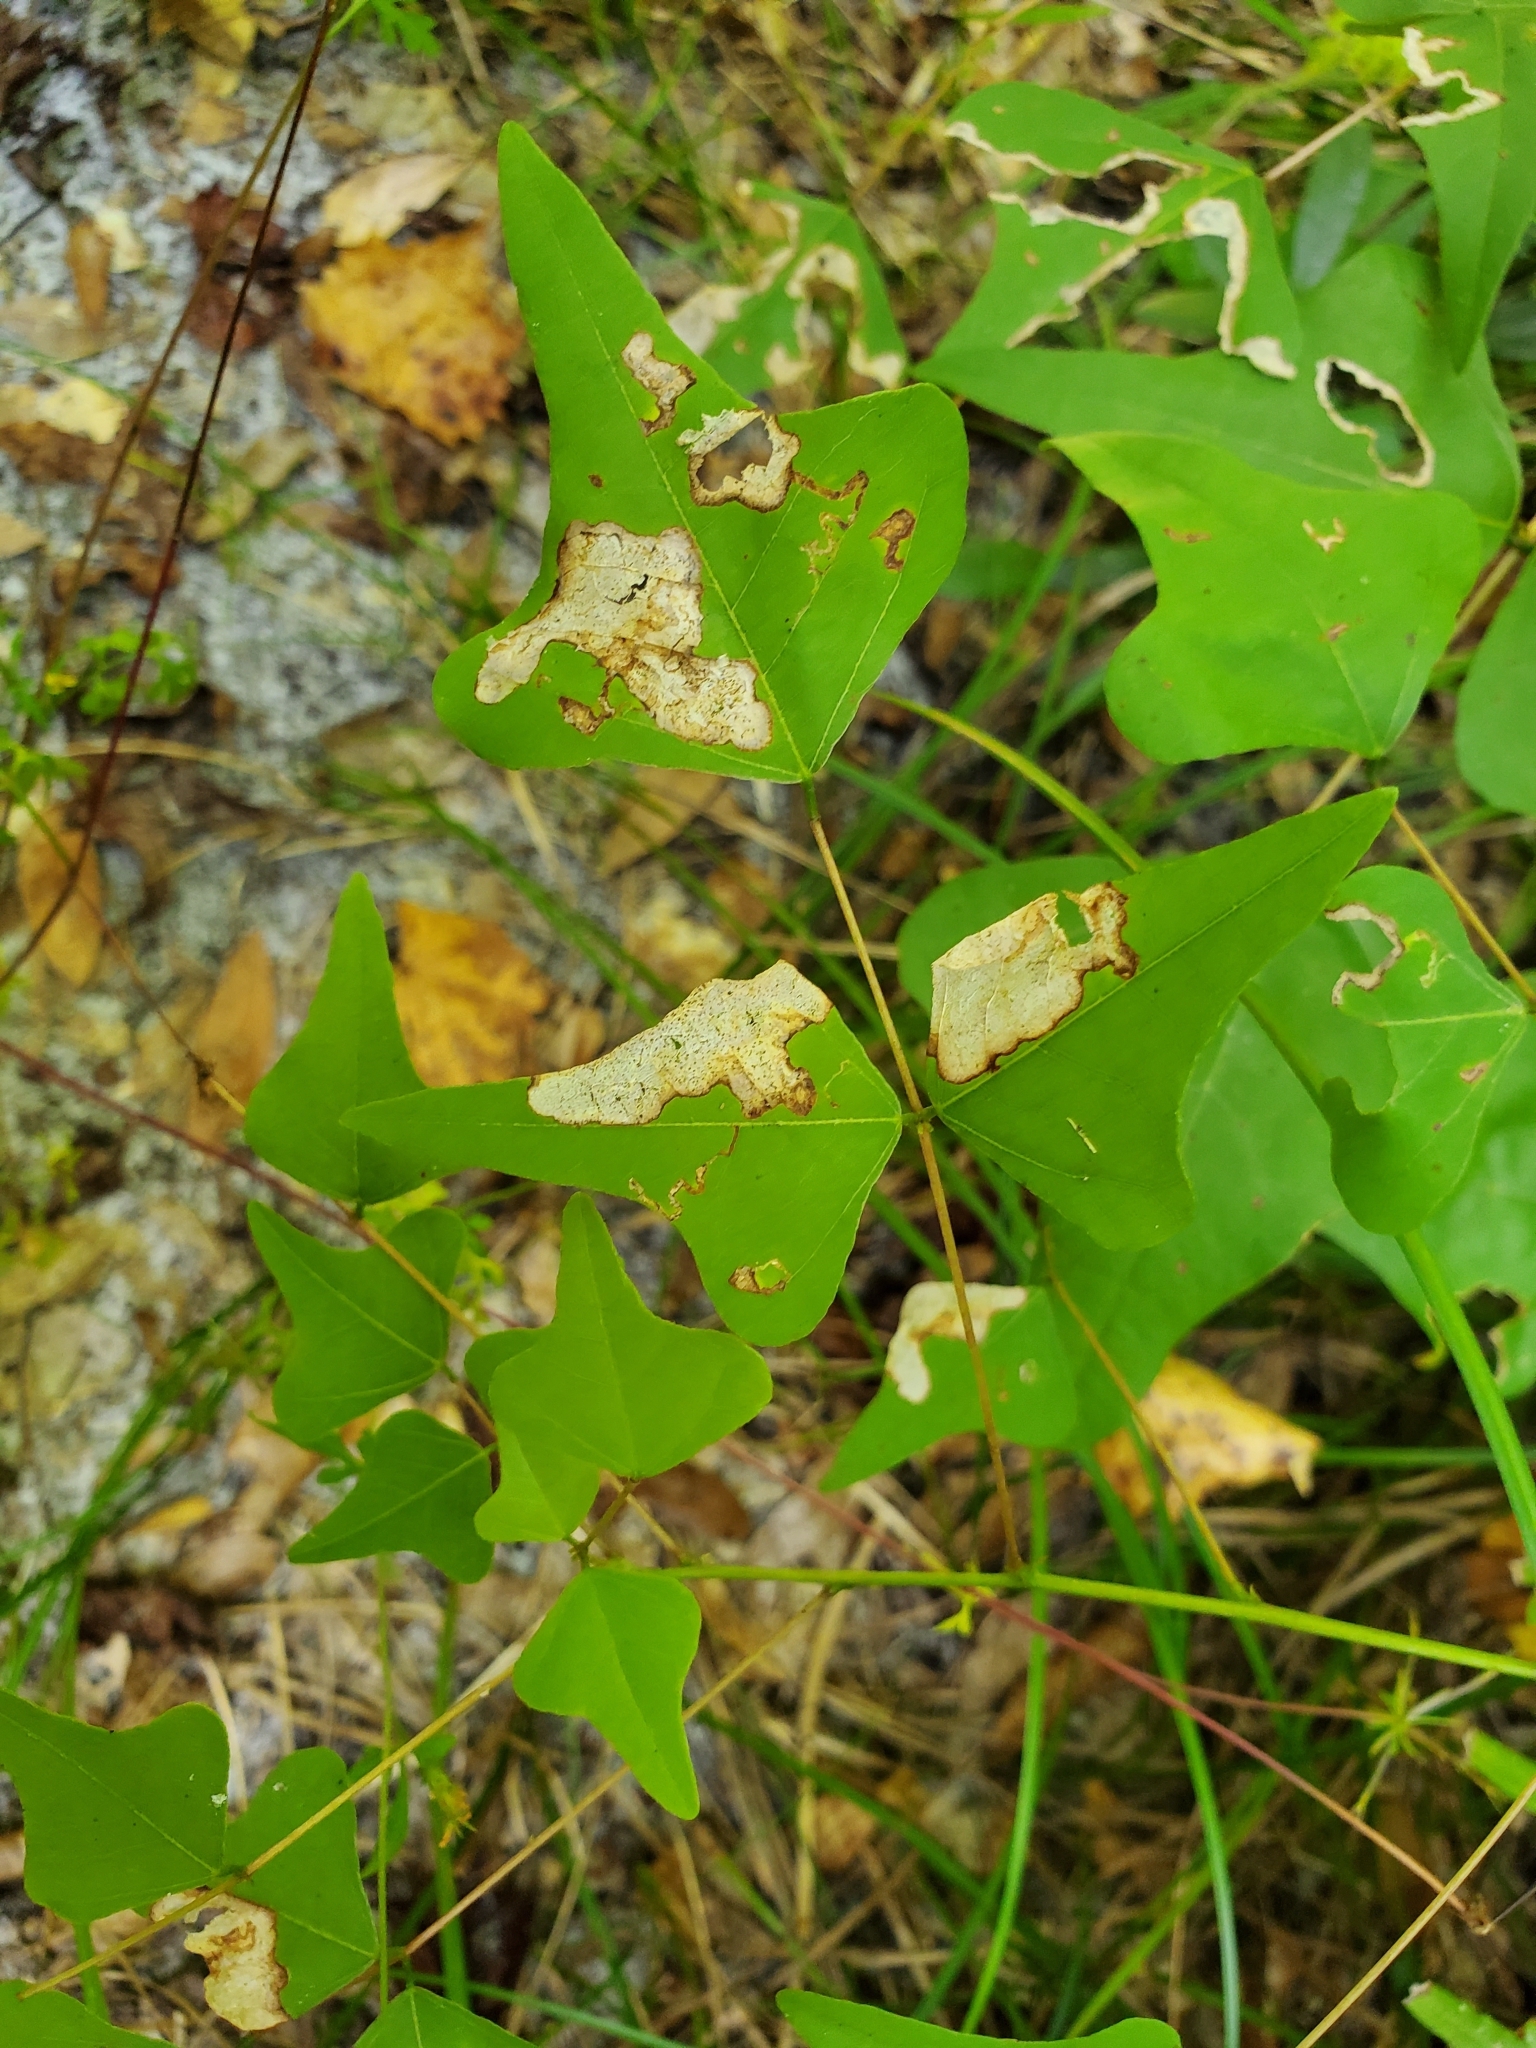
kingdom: Animalia
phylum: Arthropoda
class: Insecta
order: Lepidoptera
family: Lyonetiidae
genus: Leucoptera
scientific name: Leucoptera erythrinella
